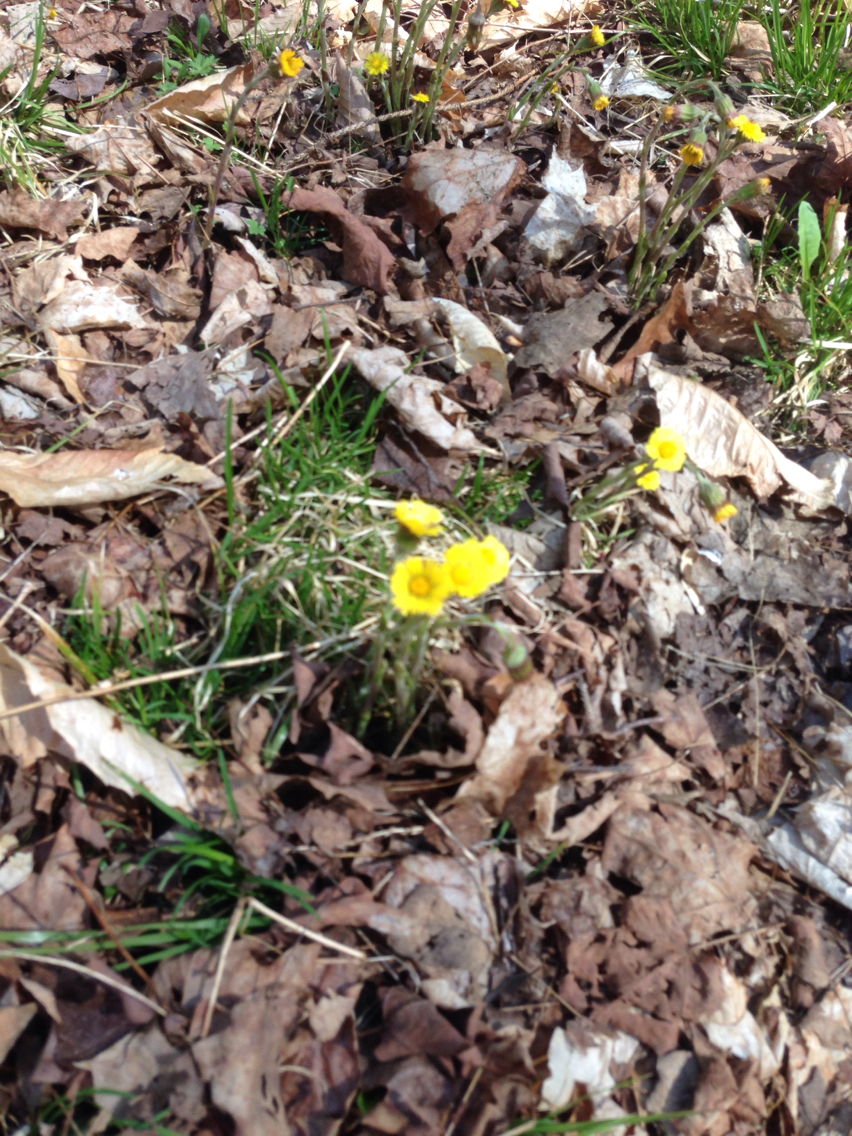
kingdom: Plantae
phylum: Tracheophyta
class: Magnoliopsida
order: Asterales
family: Asteraceae
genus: Tussilago
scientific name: Tussilago farfara
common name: Coltsfoot
